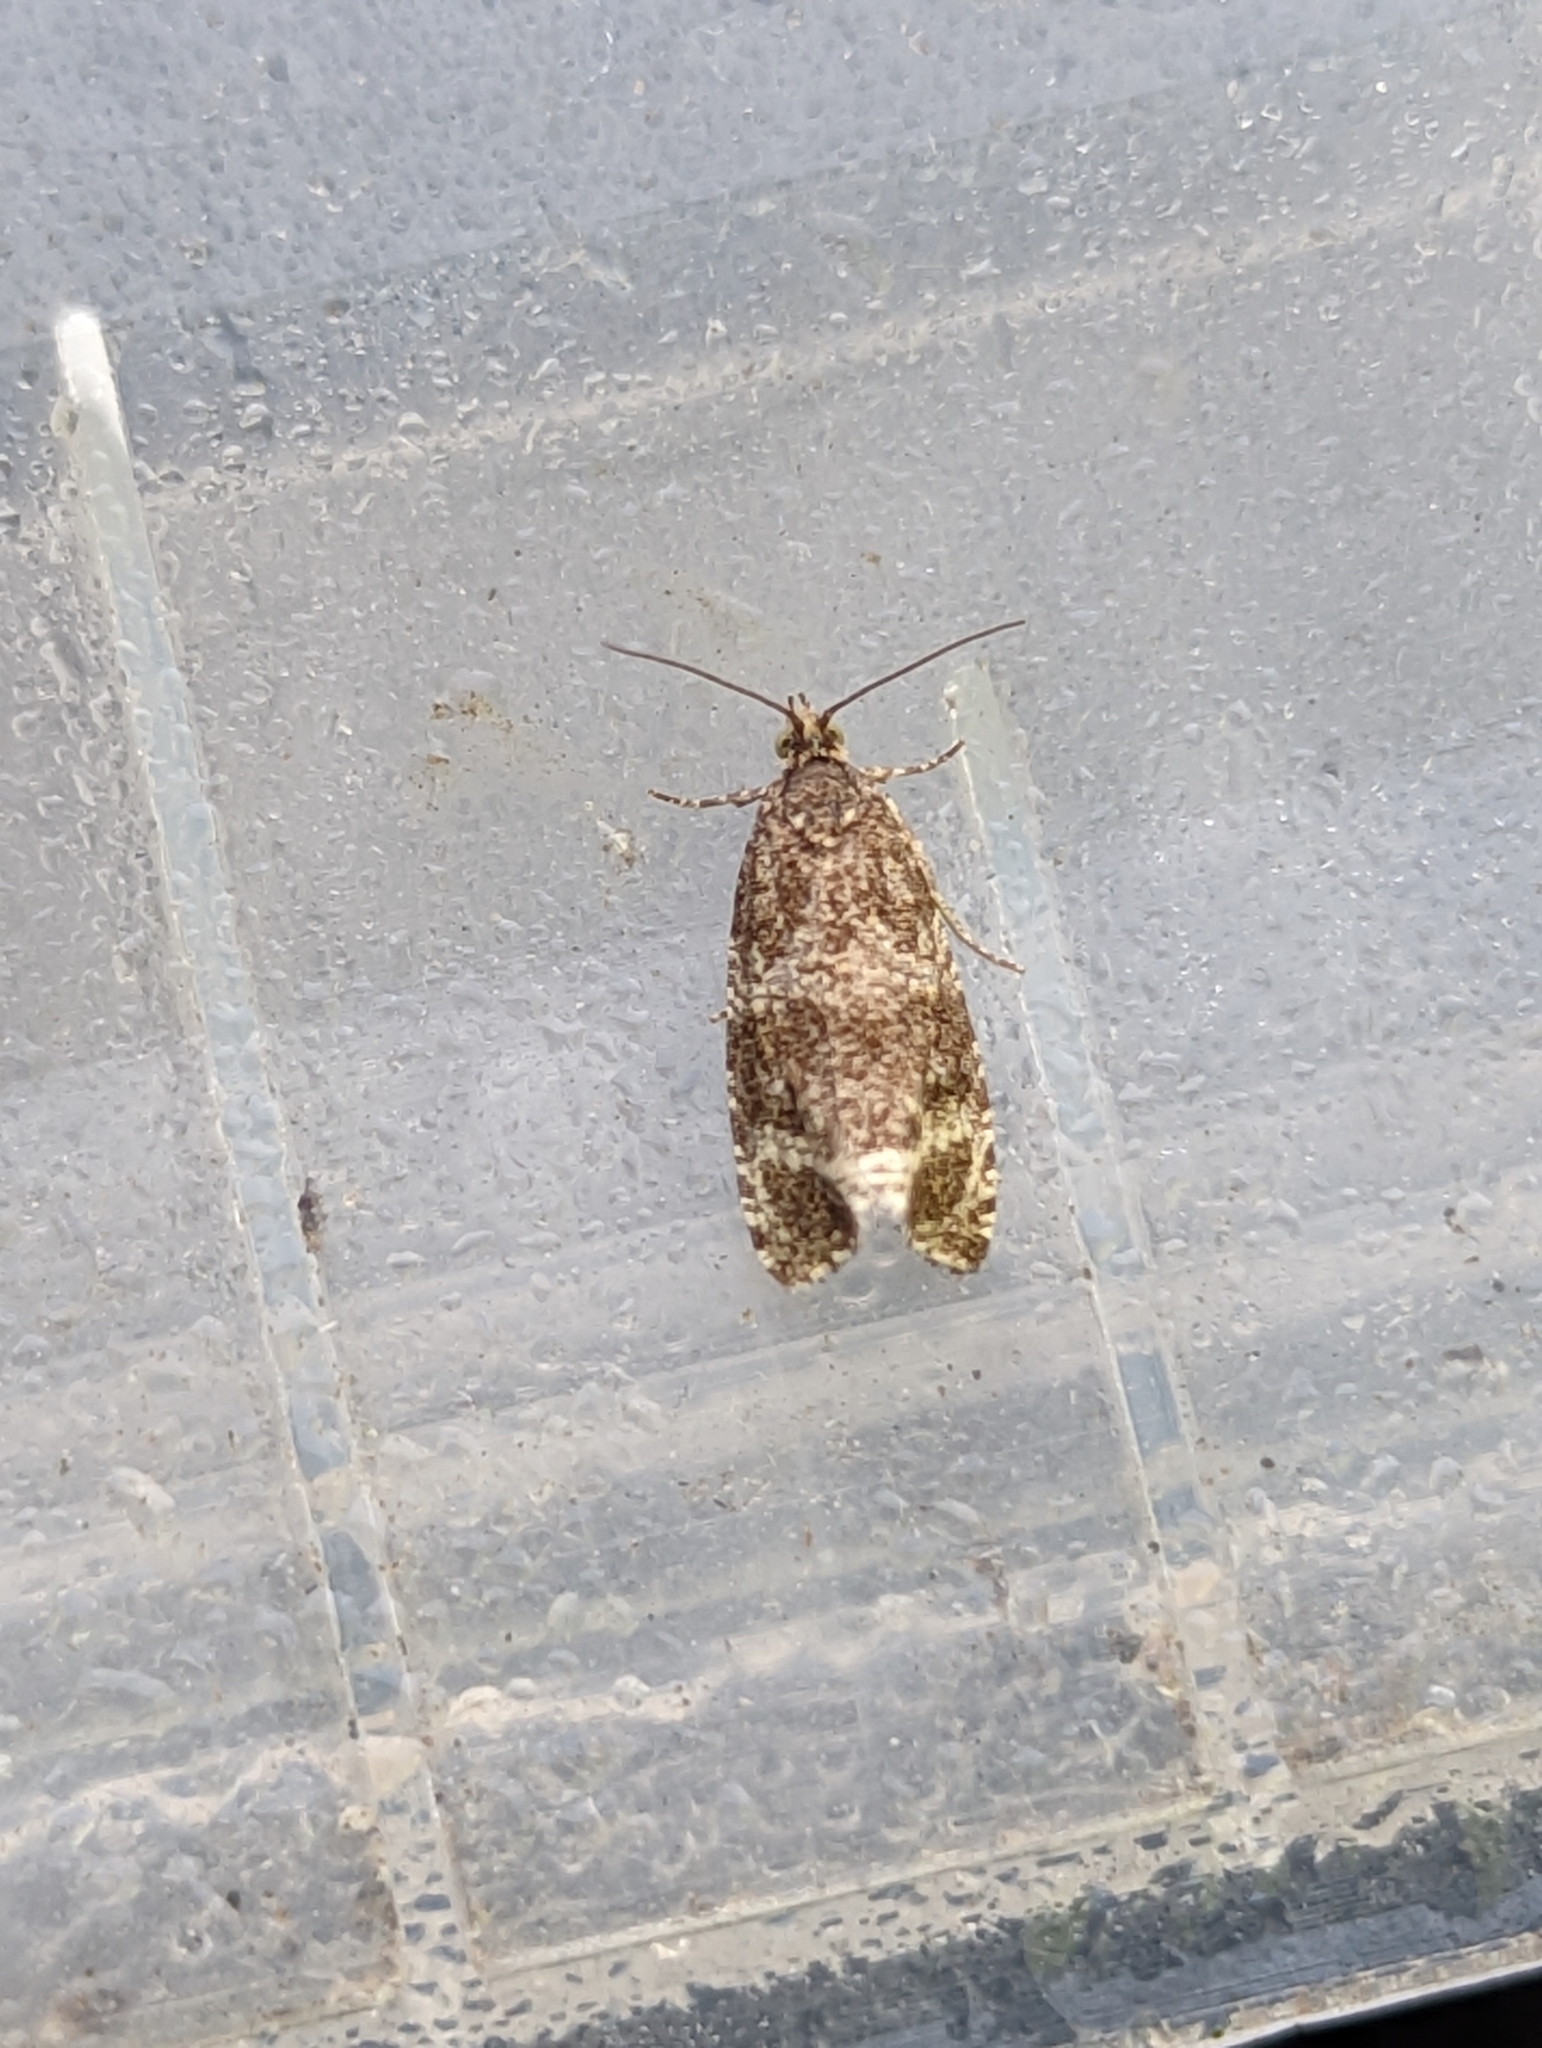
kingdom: Animalia
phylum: Arthropoda
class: Insecta
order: Lepidoptera
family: Tortricidae
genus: Syricoris
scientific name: Syricoris lacunana
